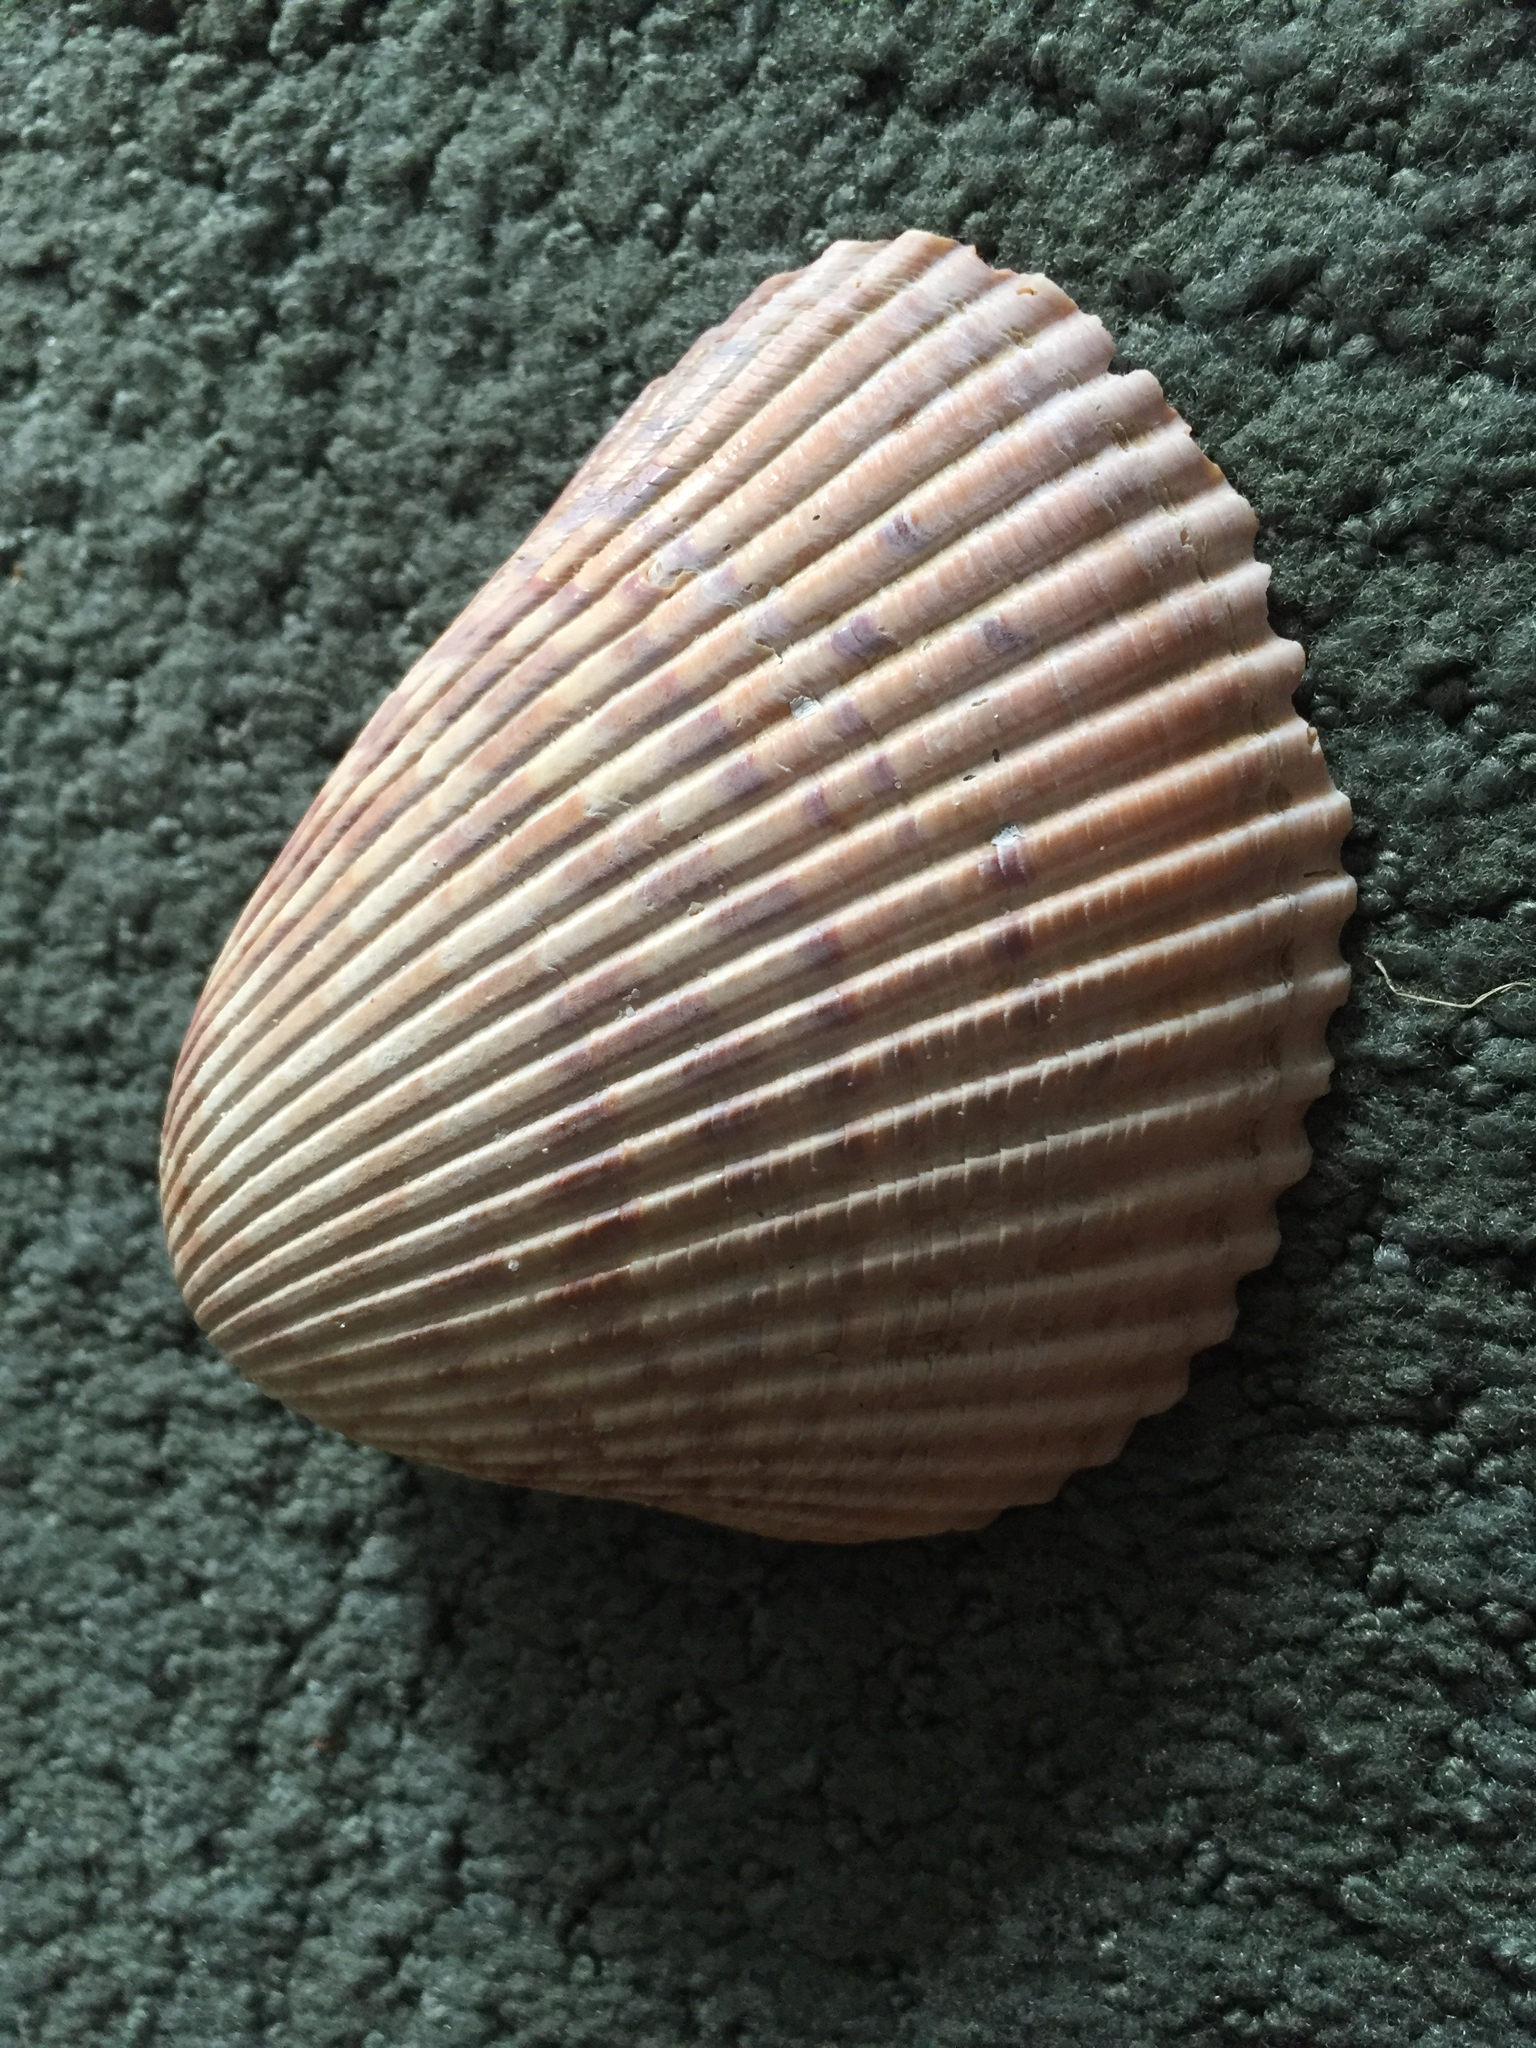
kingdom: Animalia
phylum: Mollusca
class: Bivalvia
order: Cardiida
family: Cardiidae
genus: Dinocardium
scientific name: Dinocardium robustum
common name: Atlantic giant cockle
